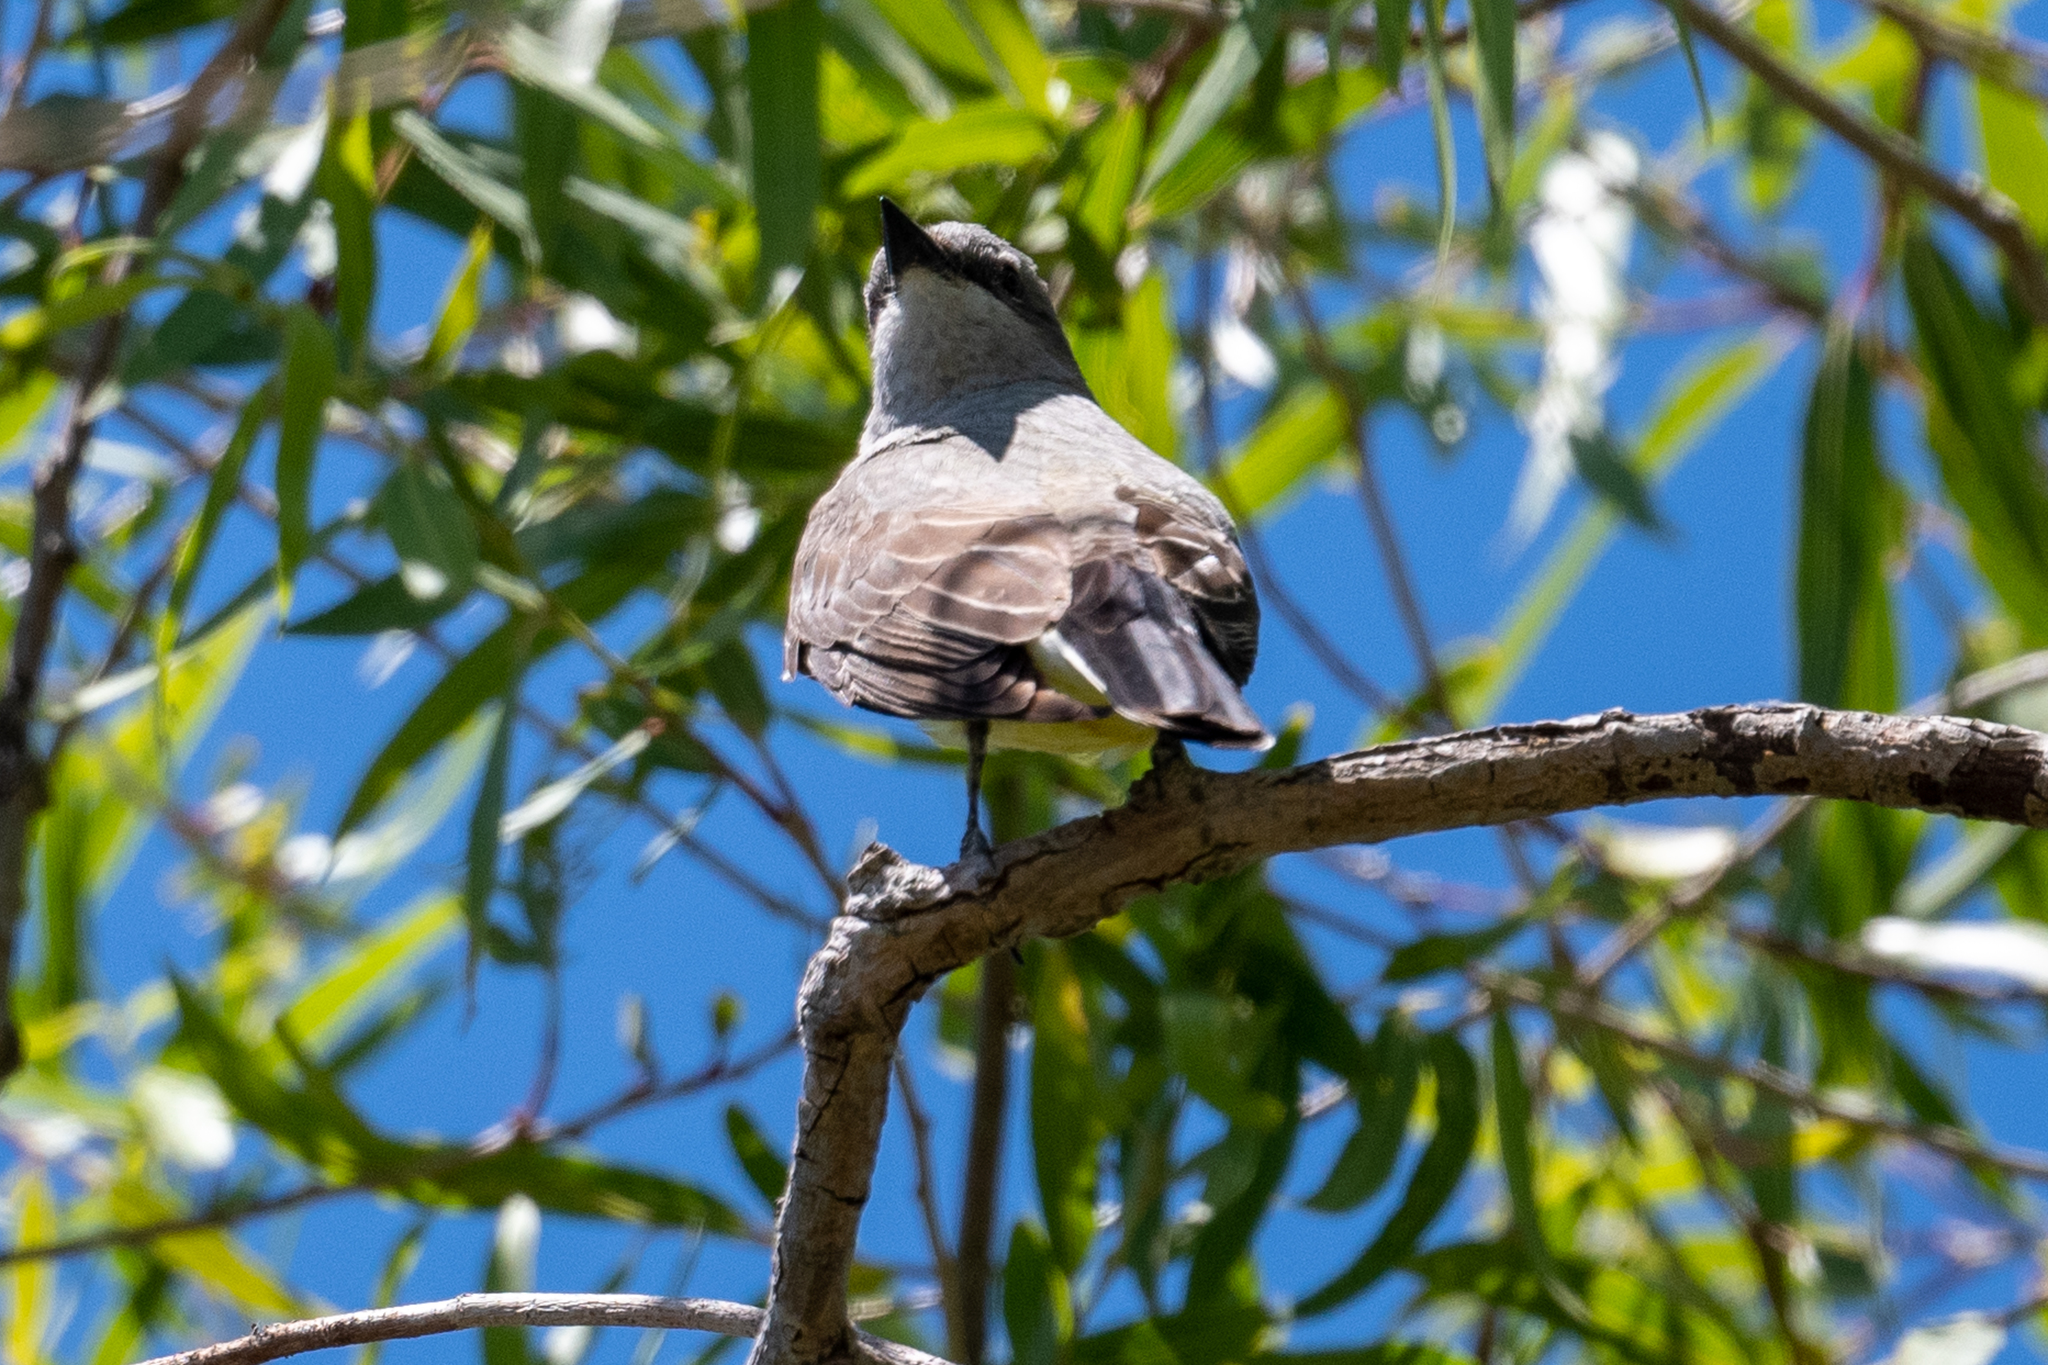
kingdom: Animalia
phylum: Chordata
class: Aves
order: Passeriformes
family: Tyrannidae
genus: Tyrannus
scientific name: Tyrannus verticalis
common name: Western kingbird
